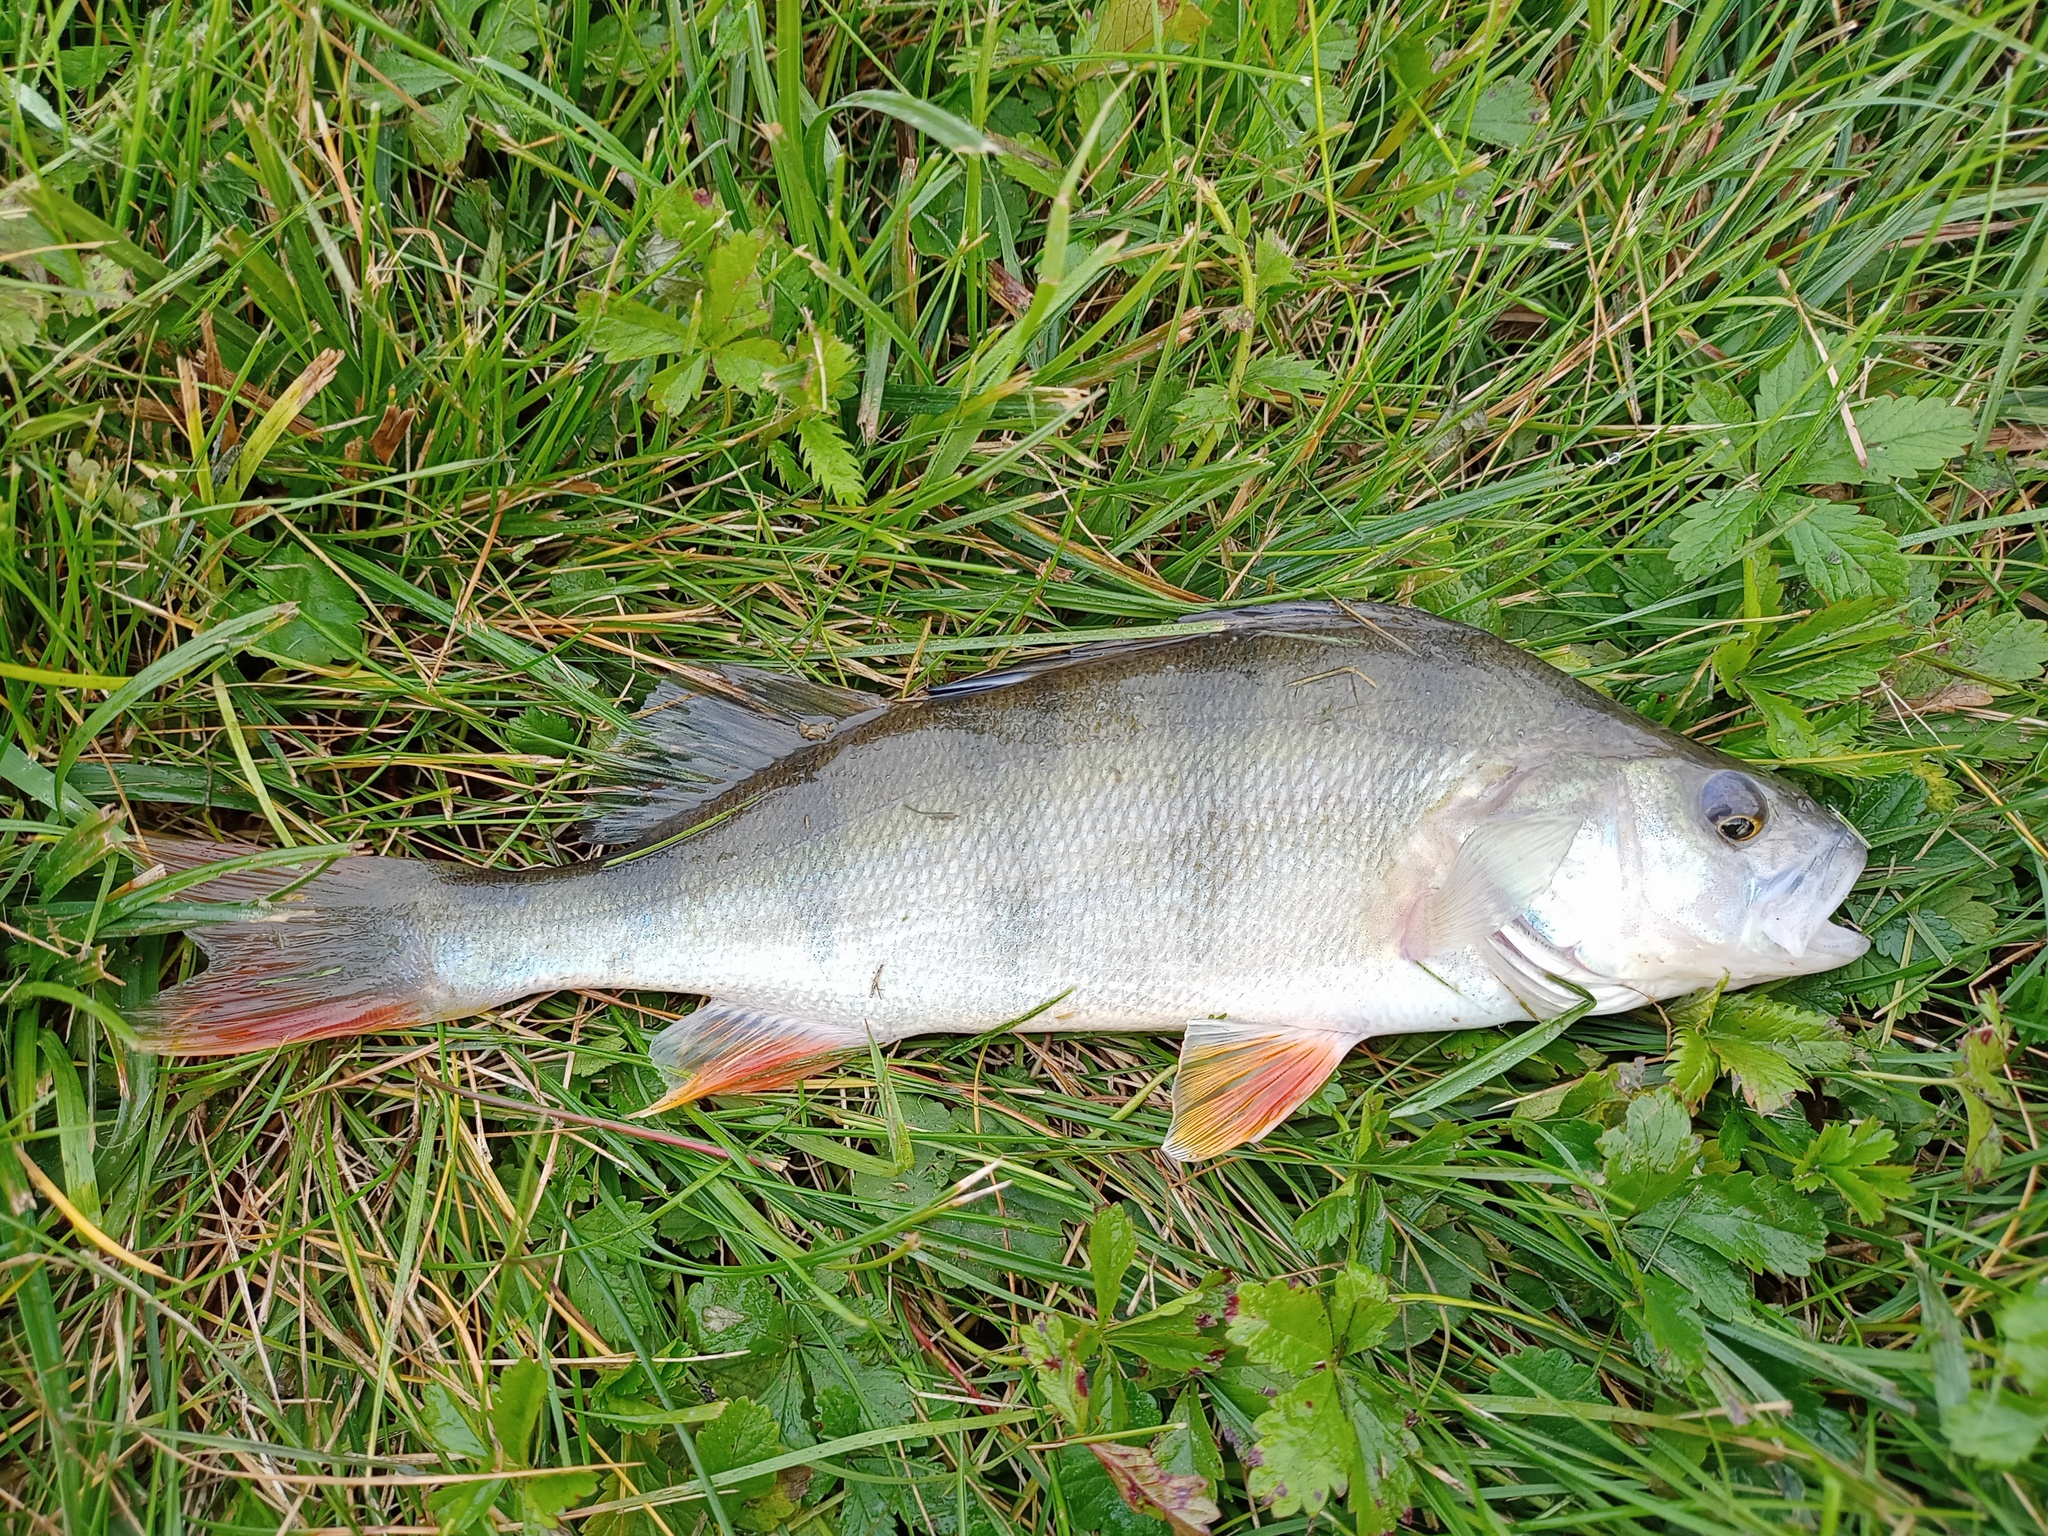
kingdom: Animalia
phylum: Chordata
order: Perciformes
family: Percidae
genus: Perca
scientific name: Perca fluviatilis
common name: Perch
